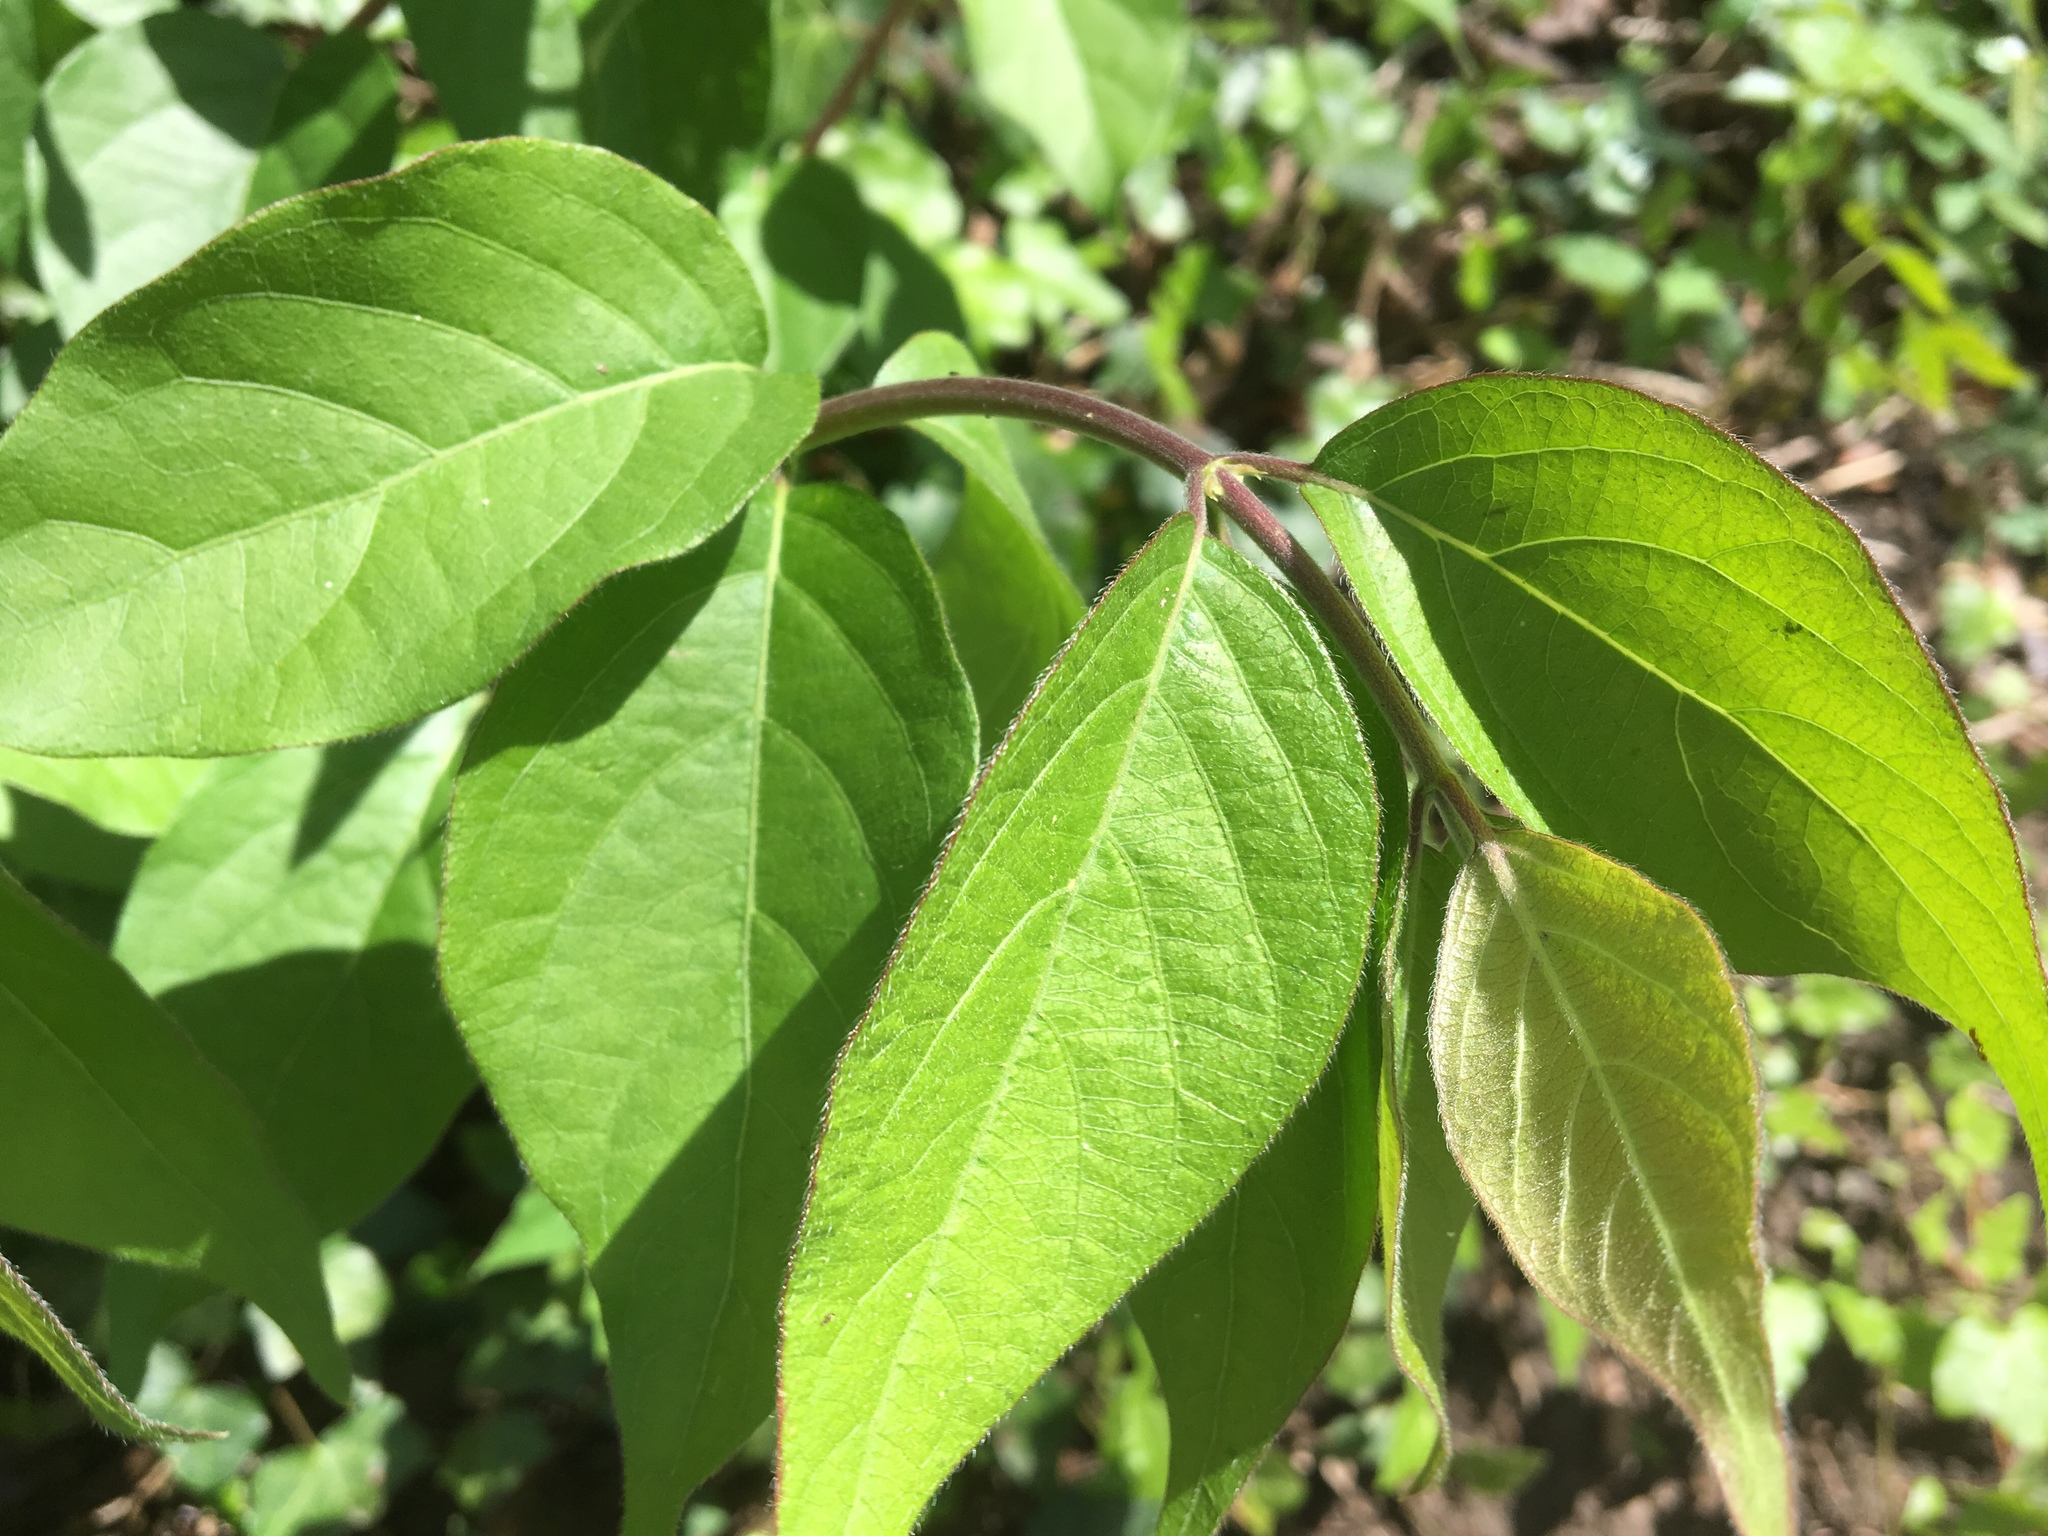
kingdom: Plantae
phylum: Tracheophyta
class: Magnoliopsida
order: Dipsacales
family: Caprifoliaceae
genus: Lonicera
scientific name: Lonicera maackii
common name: Amur honeysuckle
